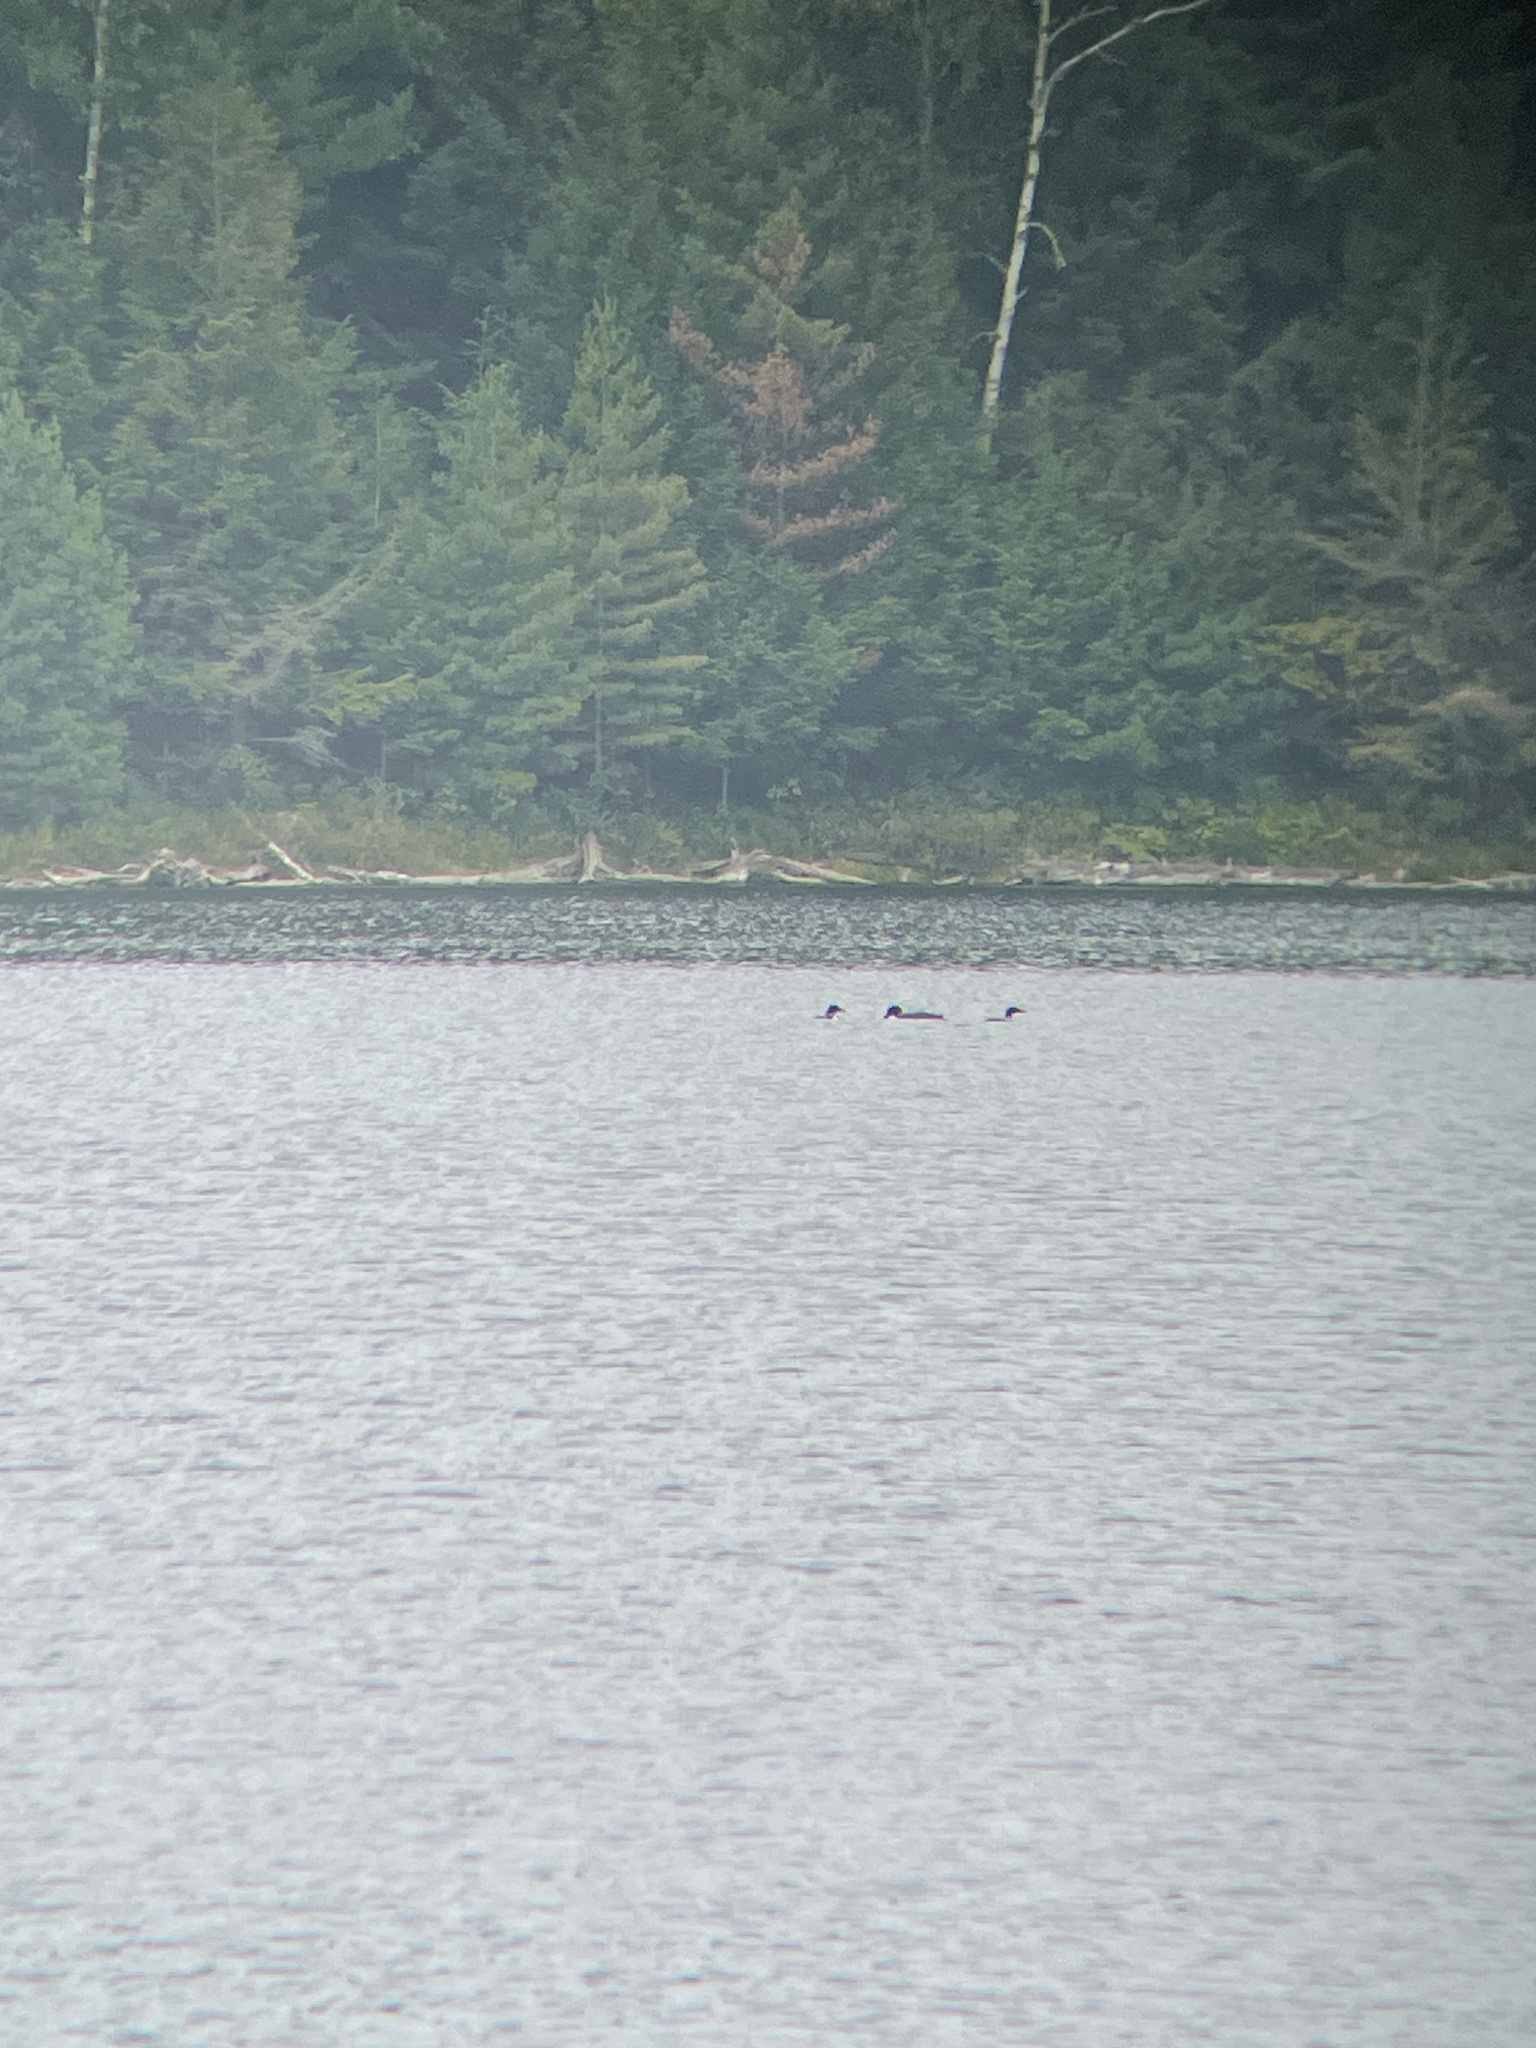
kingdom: Animalia
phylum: Chordata
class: Aves
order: Gaviiformes
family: Gaviidae
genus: Gavia
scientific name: Gavia immer
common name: Common loon
